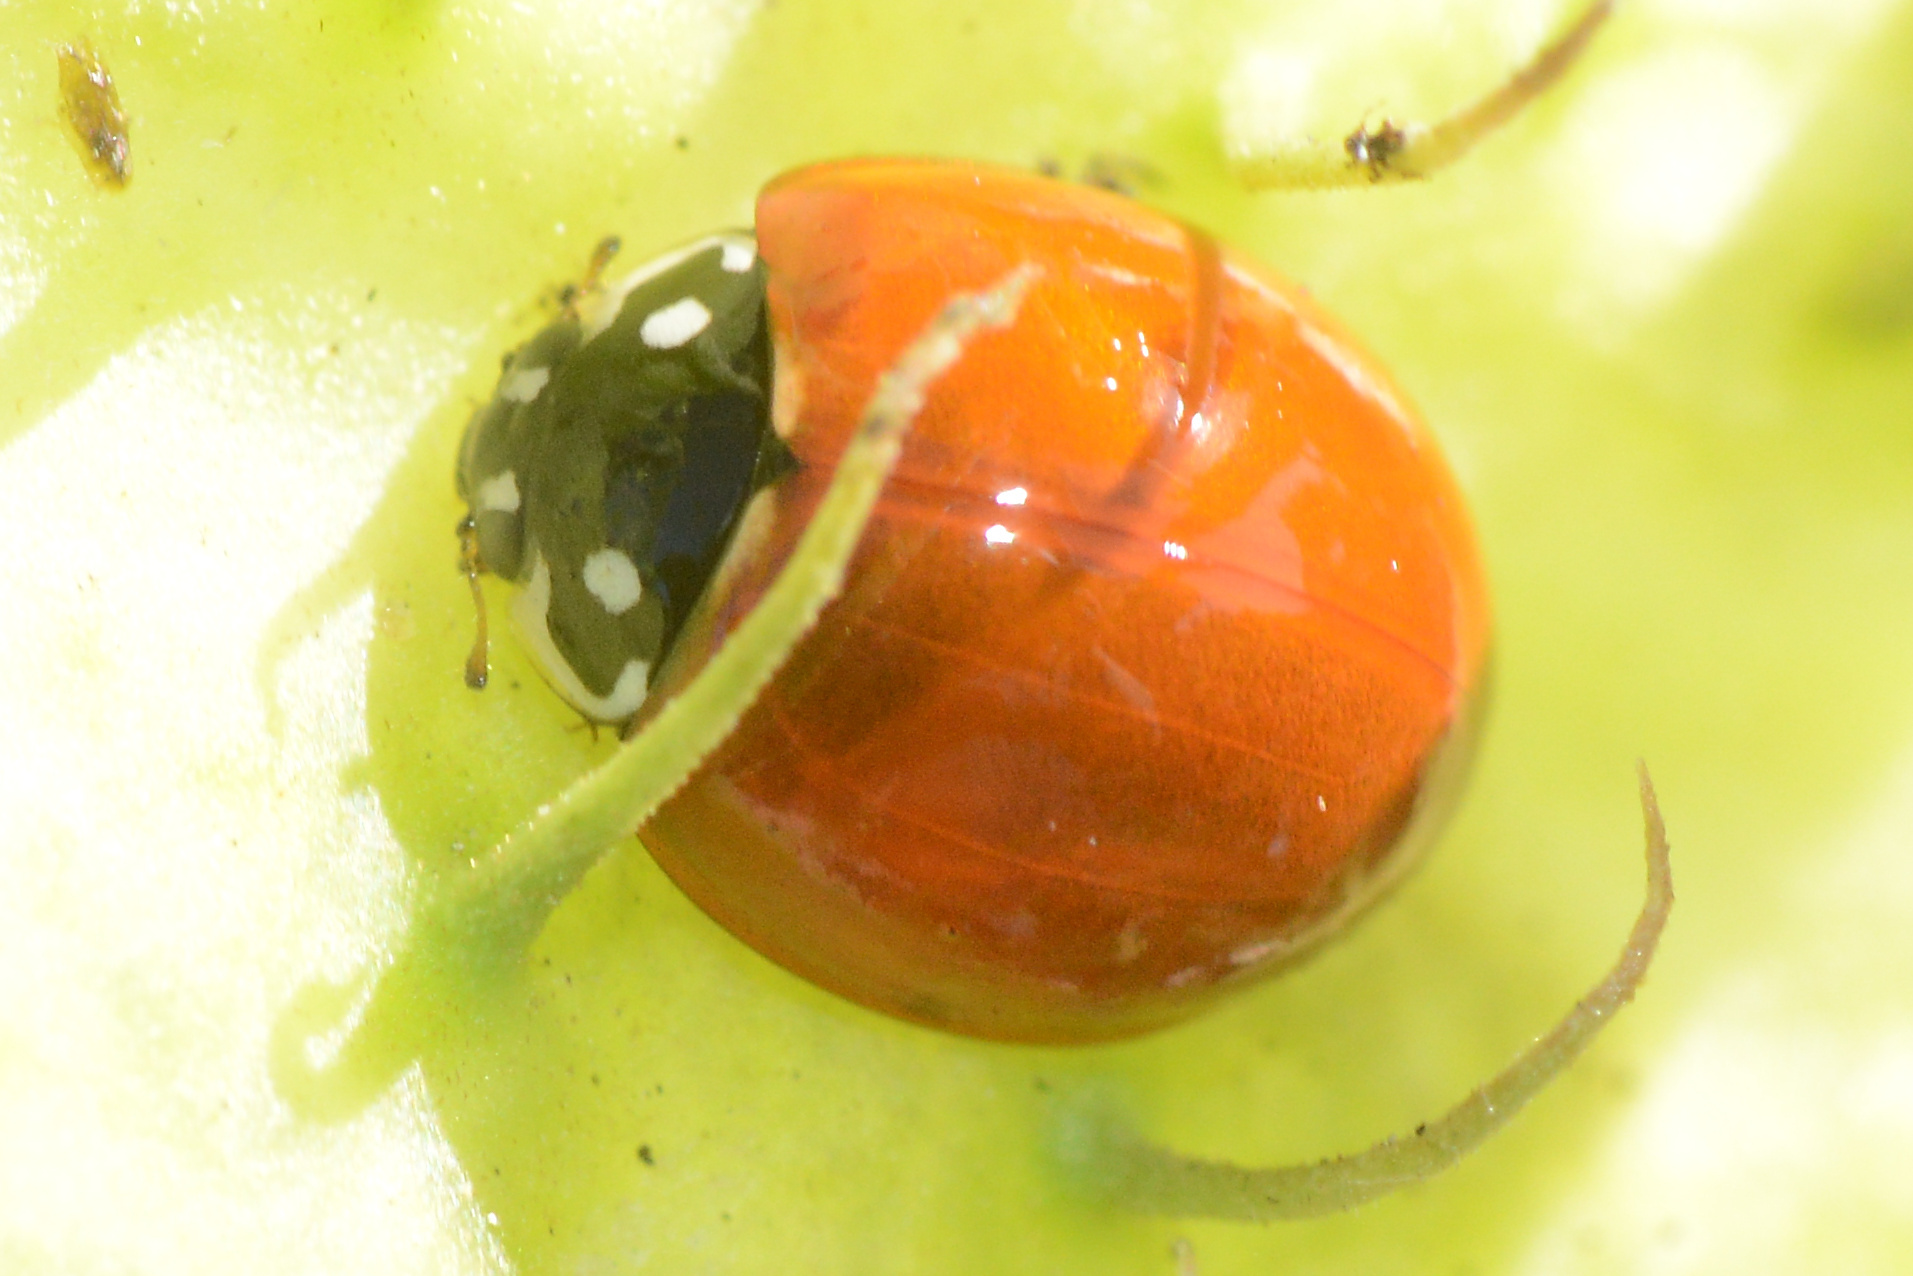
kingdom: Animalia
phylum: Arthropoda
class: Insecta
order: Coleoptera
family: Coccinellidae
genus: Cycloneda
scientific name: Cycloneda sanguinea
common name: Ladybird beetle
